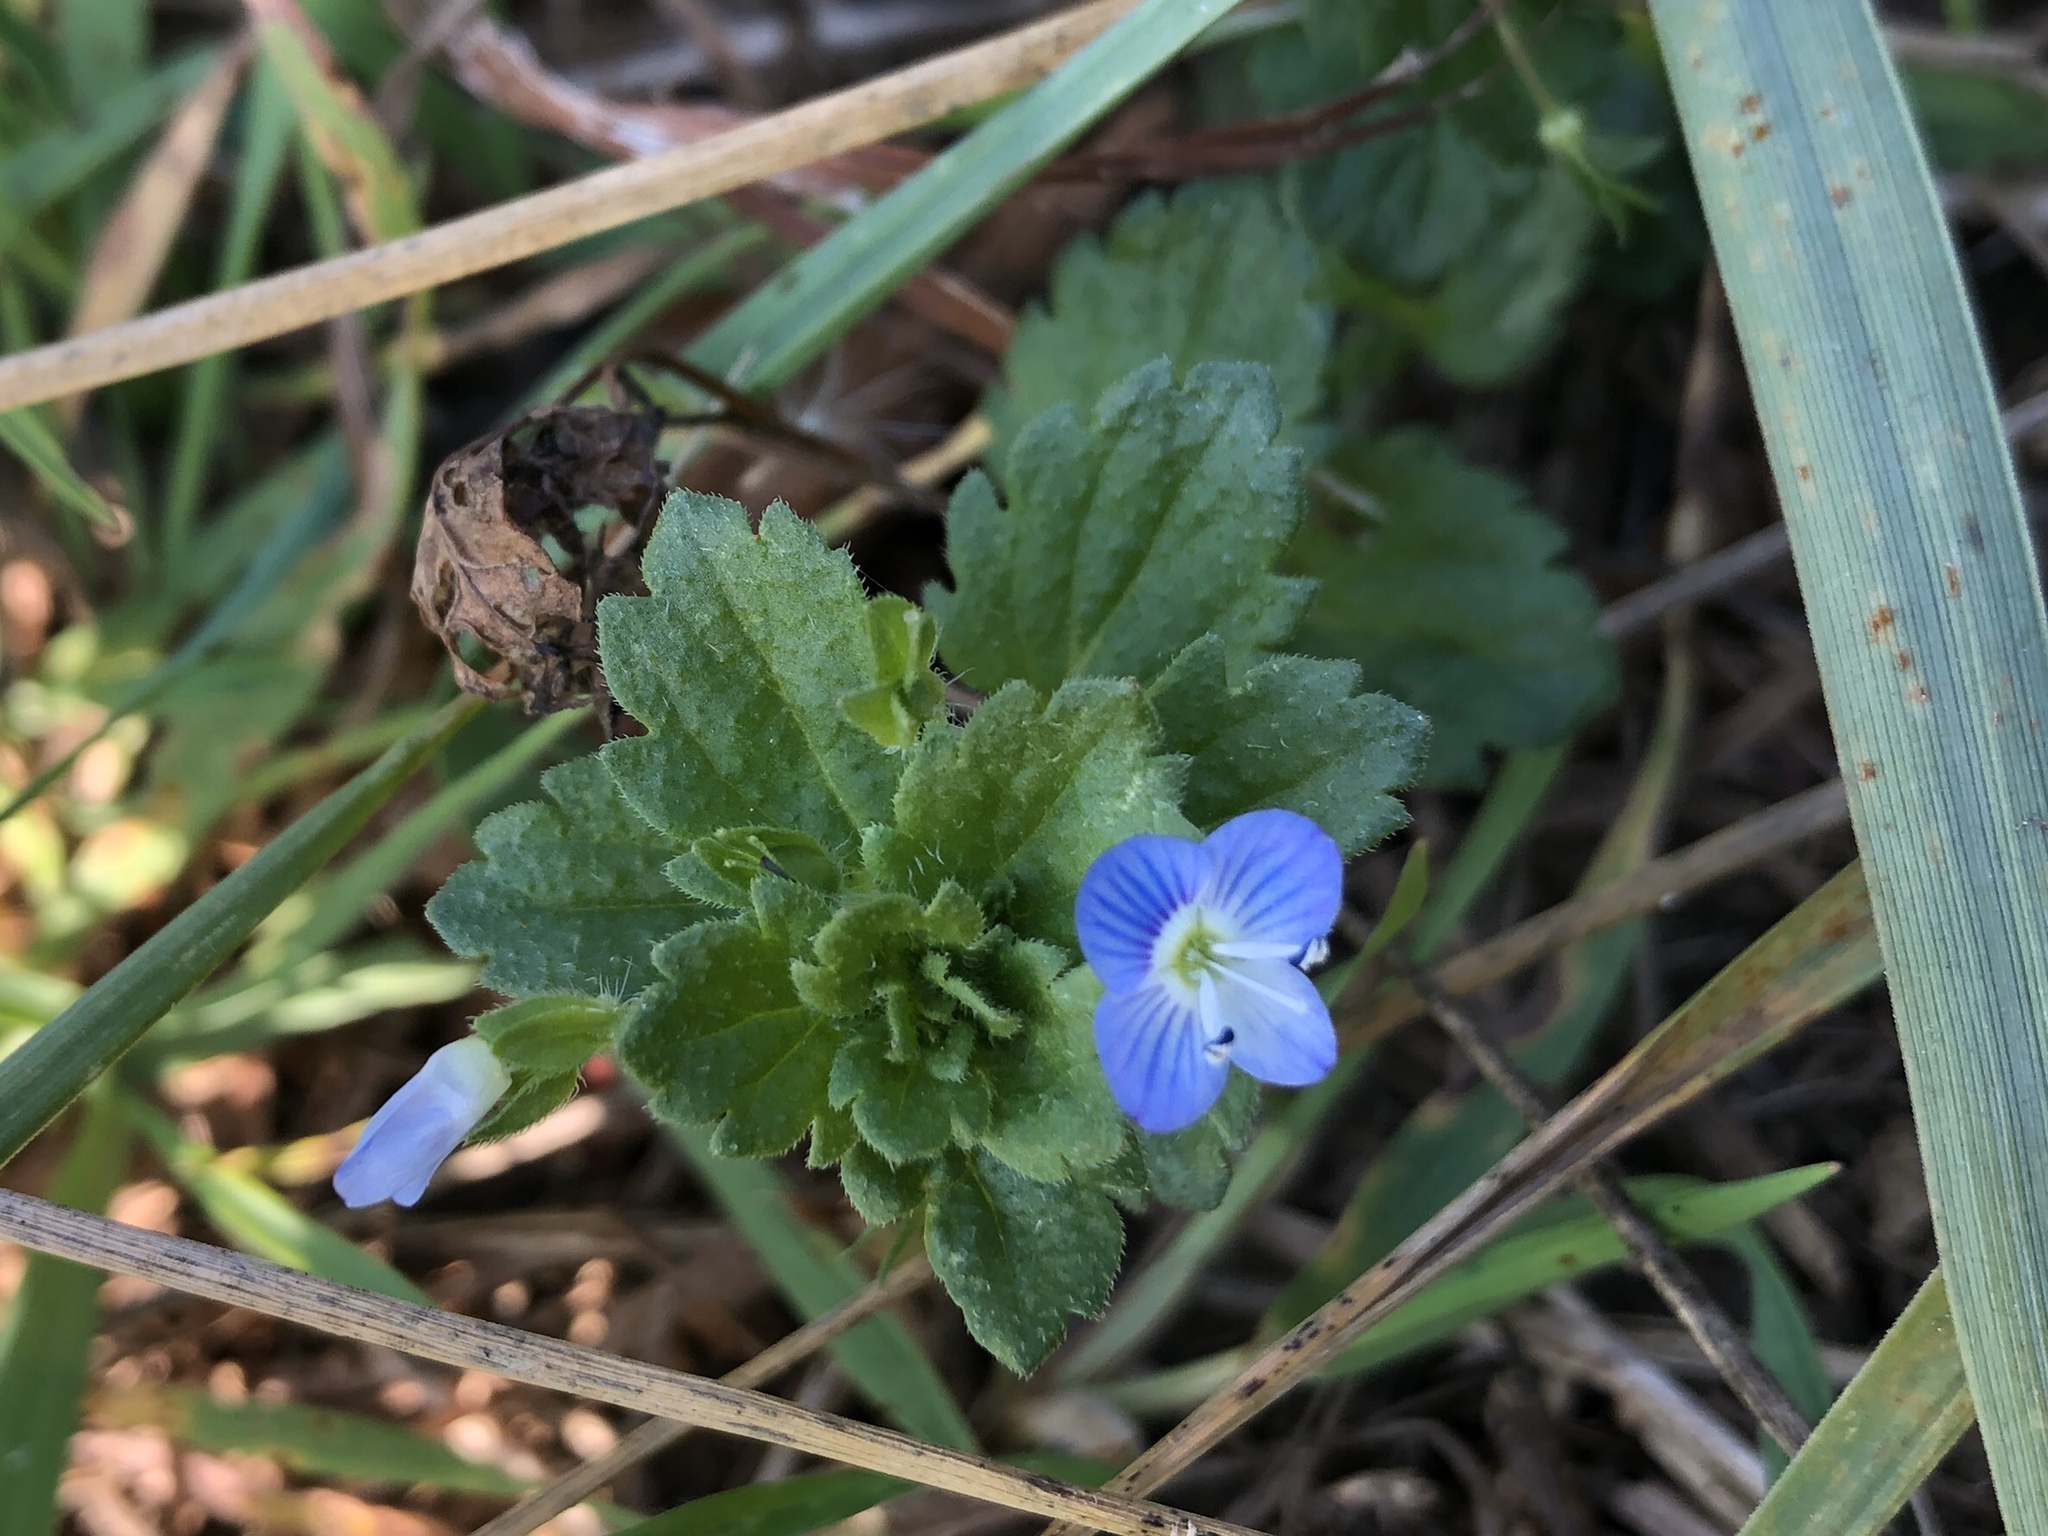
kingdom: Plantae
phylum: Tracheophyta
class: Magnoliopsida
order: Lamiales
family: Plantaginaceae
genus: Veronica
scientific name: Veronica persica
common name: Common field-speedwell
